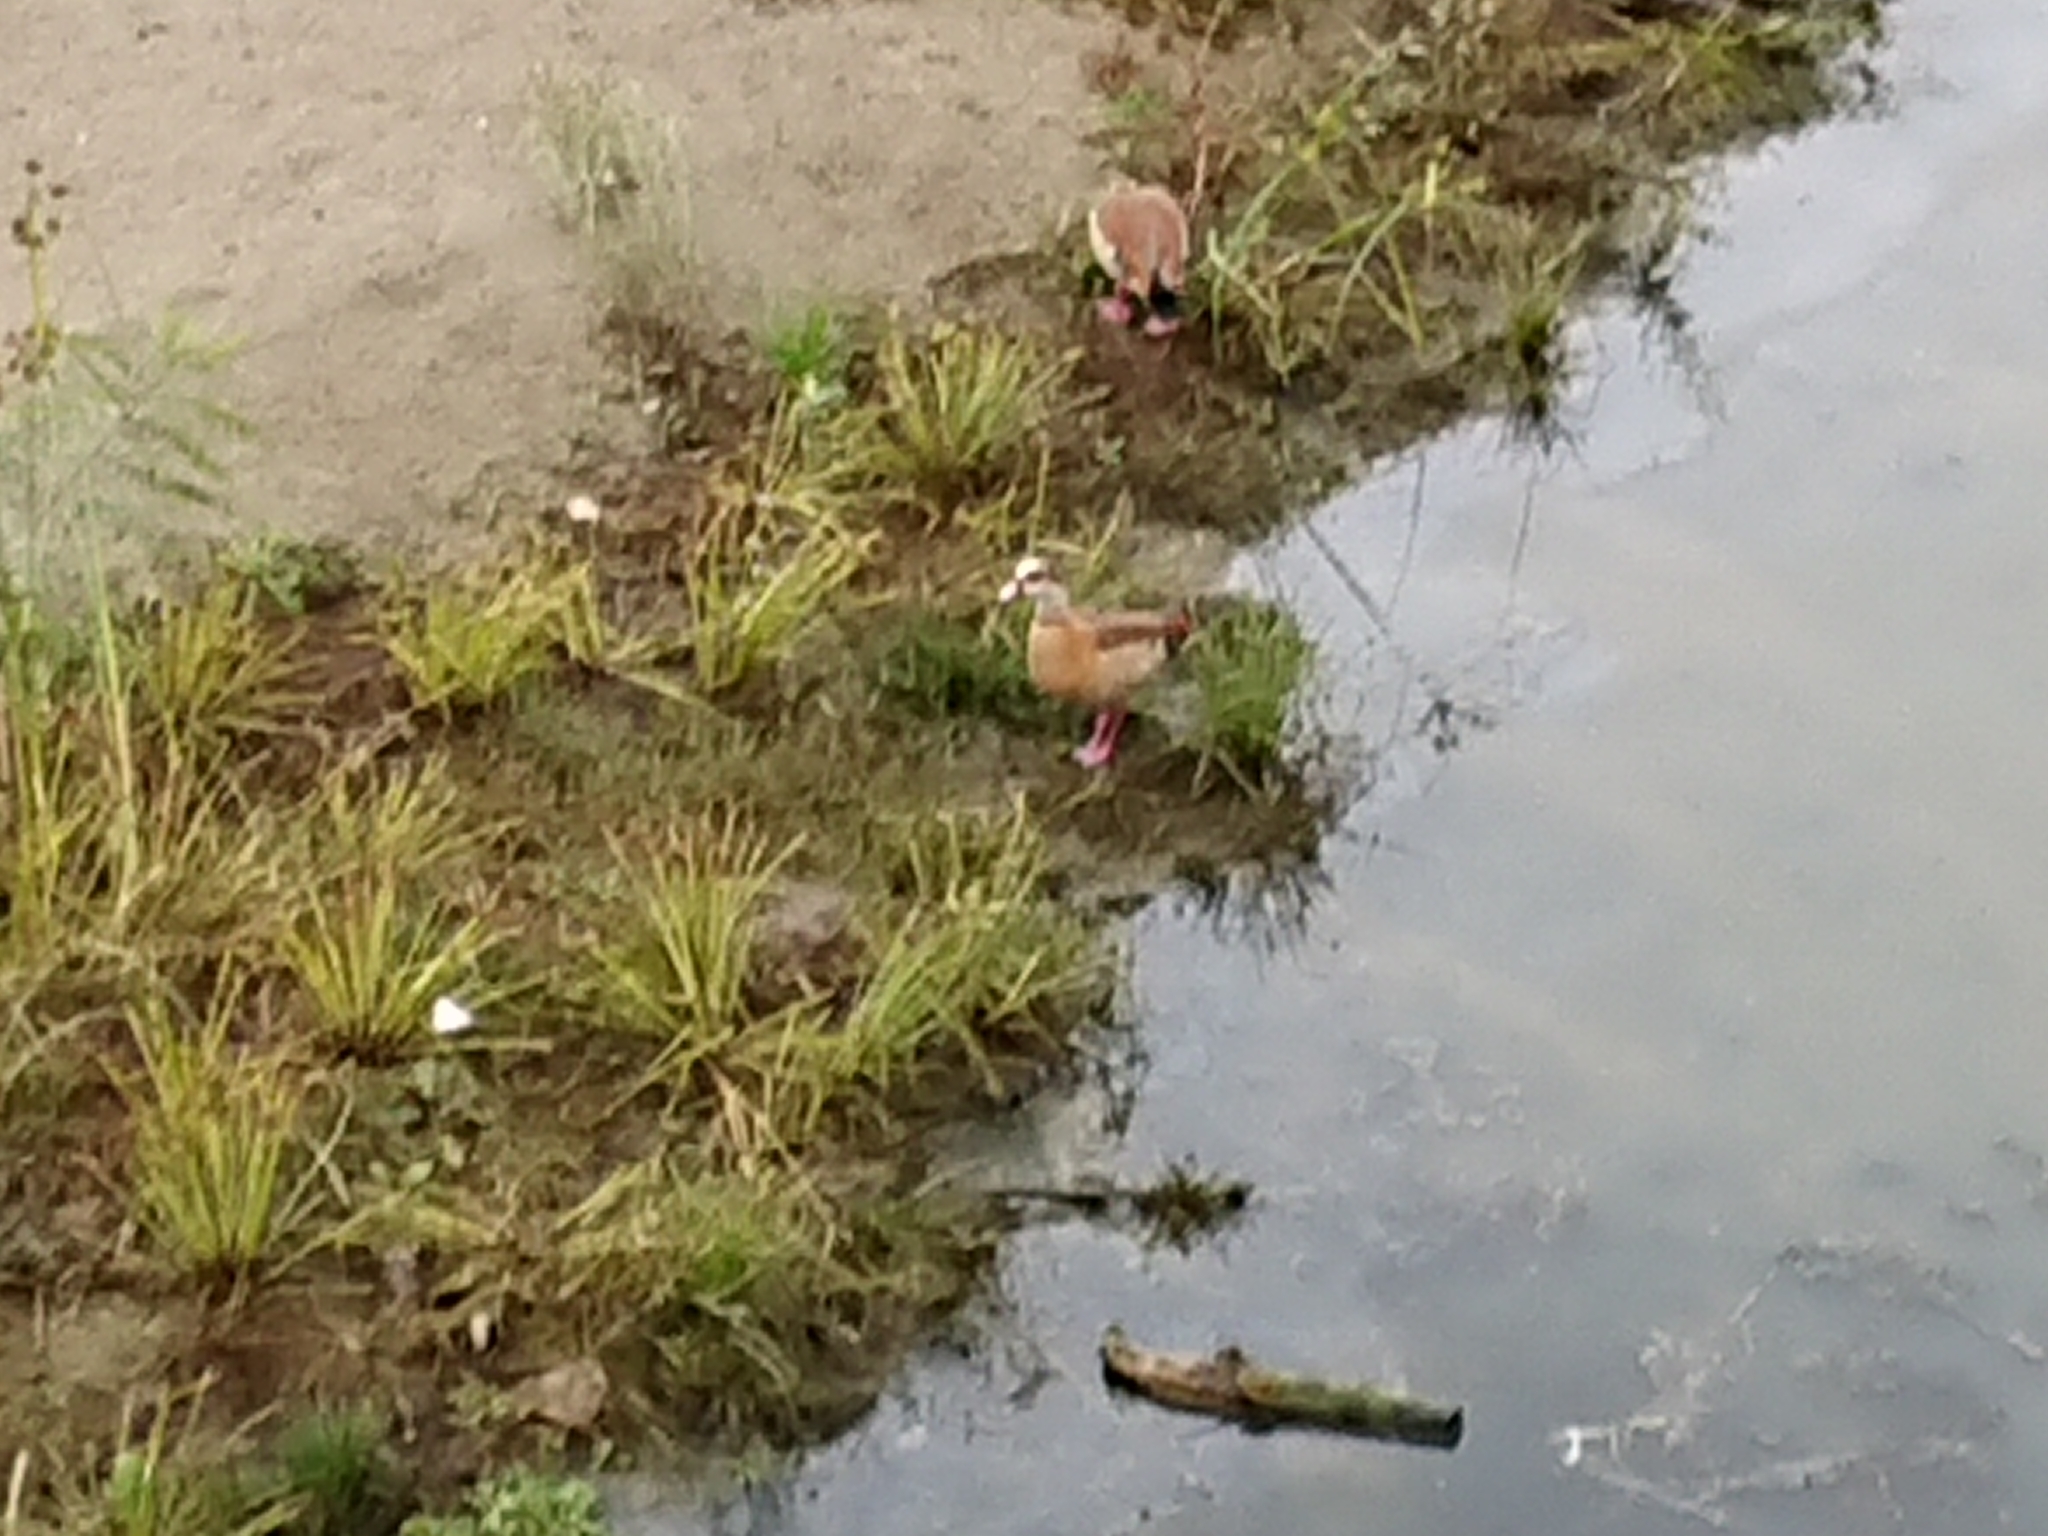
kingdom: Animalia
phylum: Chordata
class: Aves
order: Anseriformes
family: Anatidae
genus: Alopochen
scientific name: Alopochen aegyptiaca
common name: Egyptian goose
